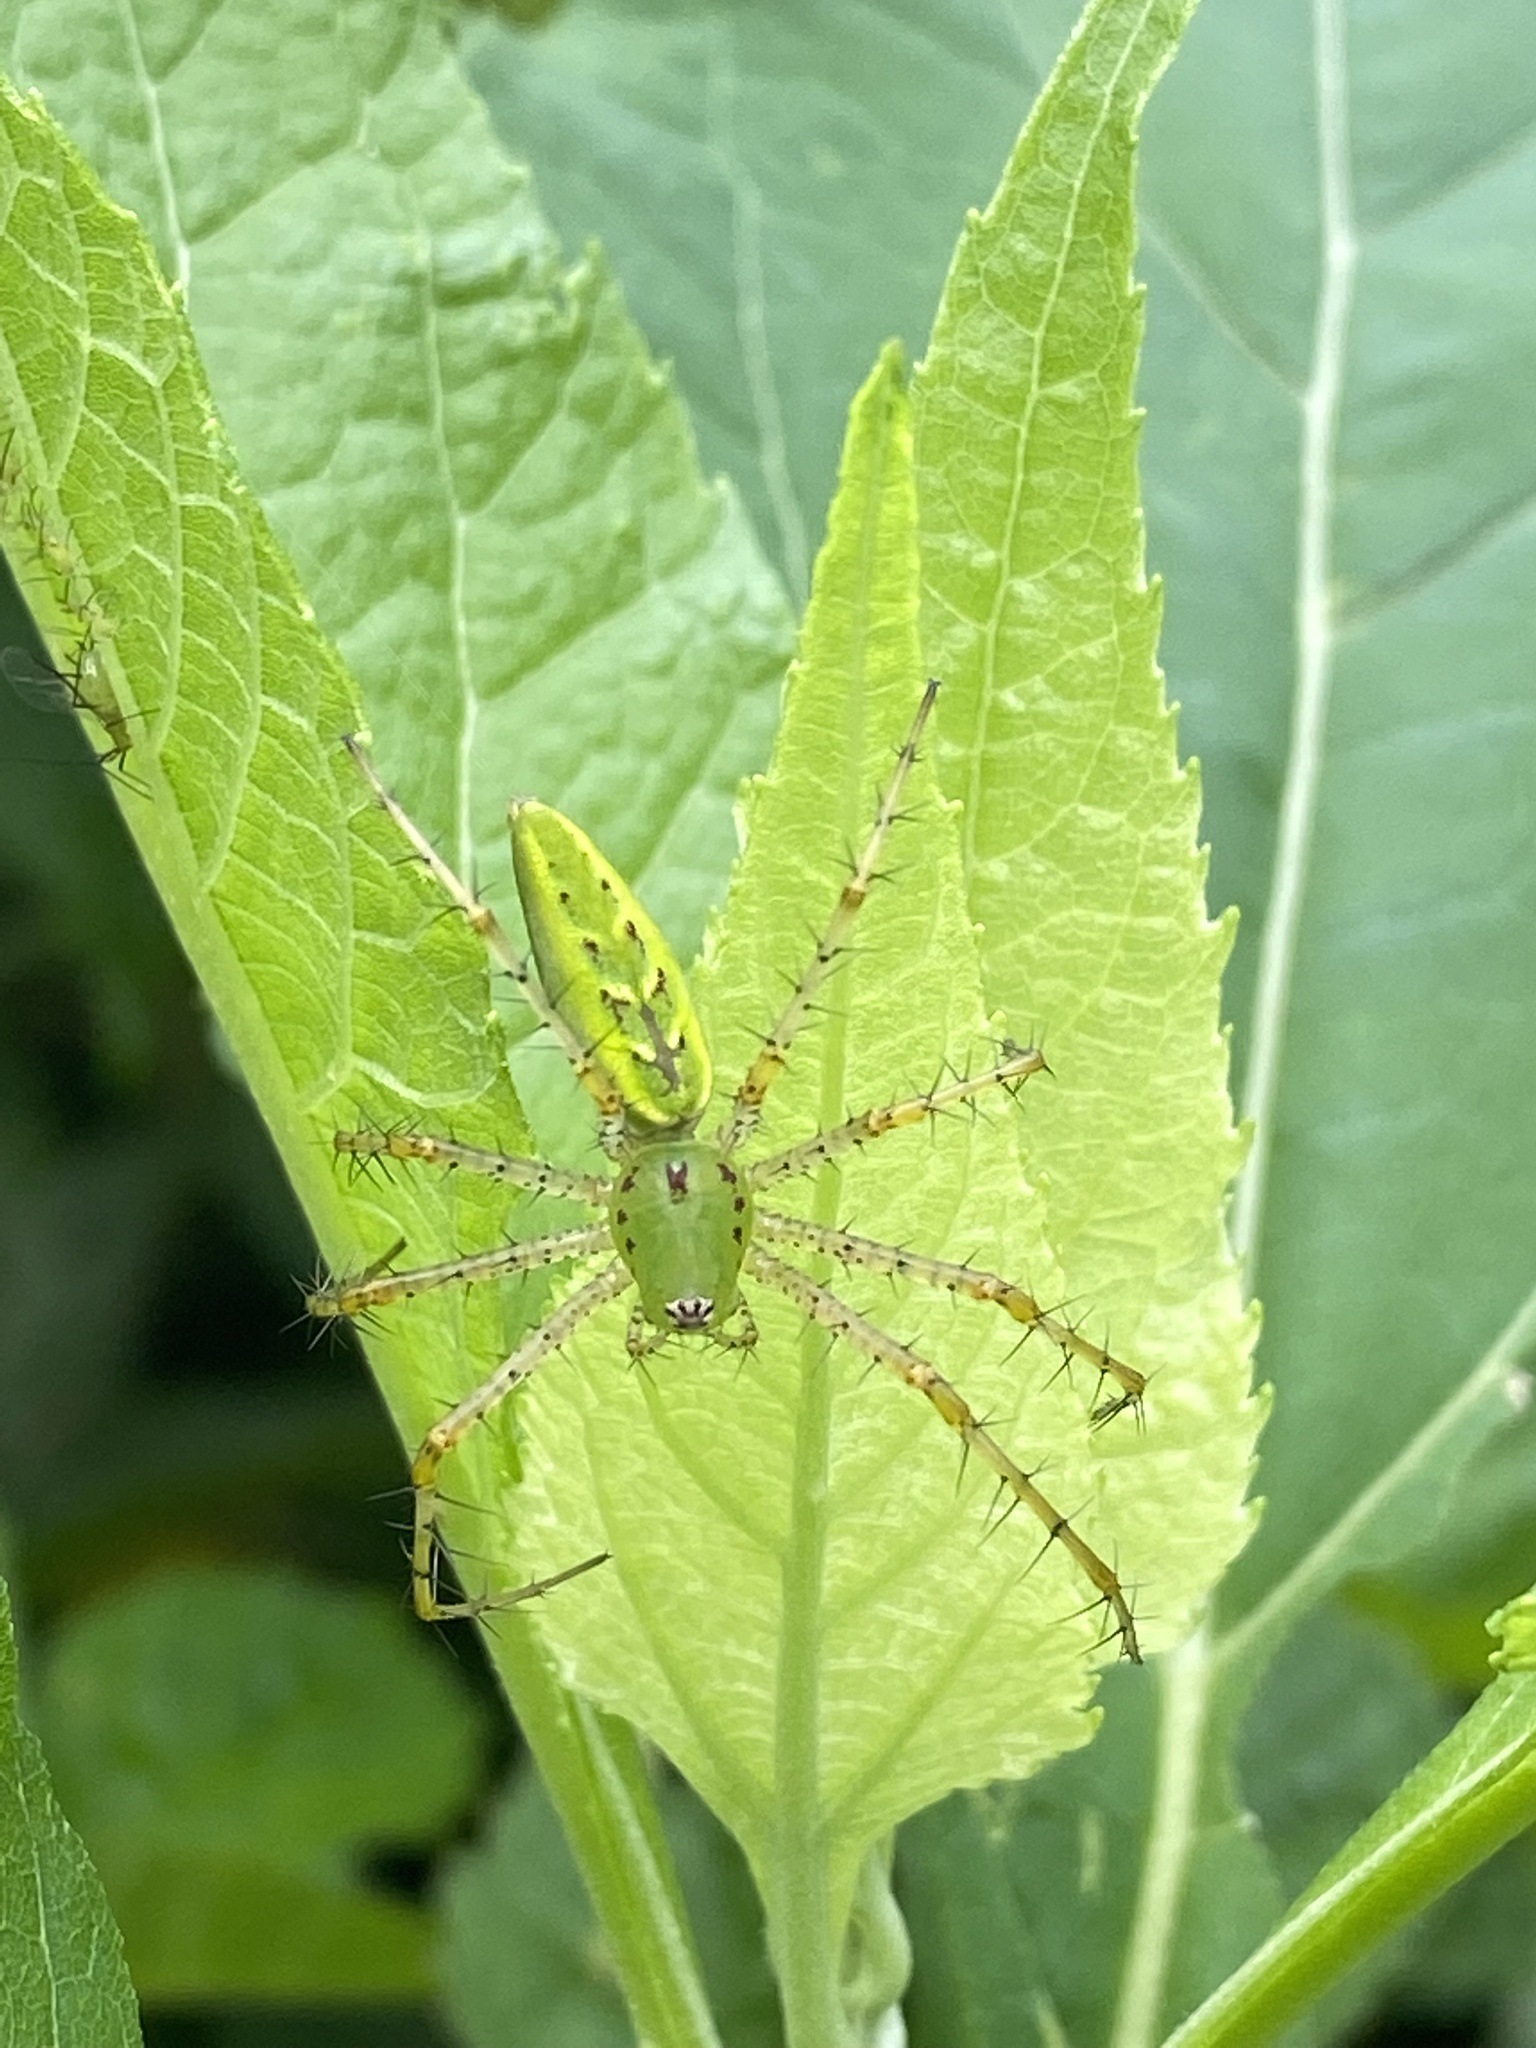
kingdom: Animalia
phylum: Arthropoda
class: Arachnida
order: Araneae
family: Oxyopidae
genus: Peucetia
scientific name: Peucetia viridans
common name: Lynx spiders
